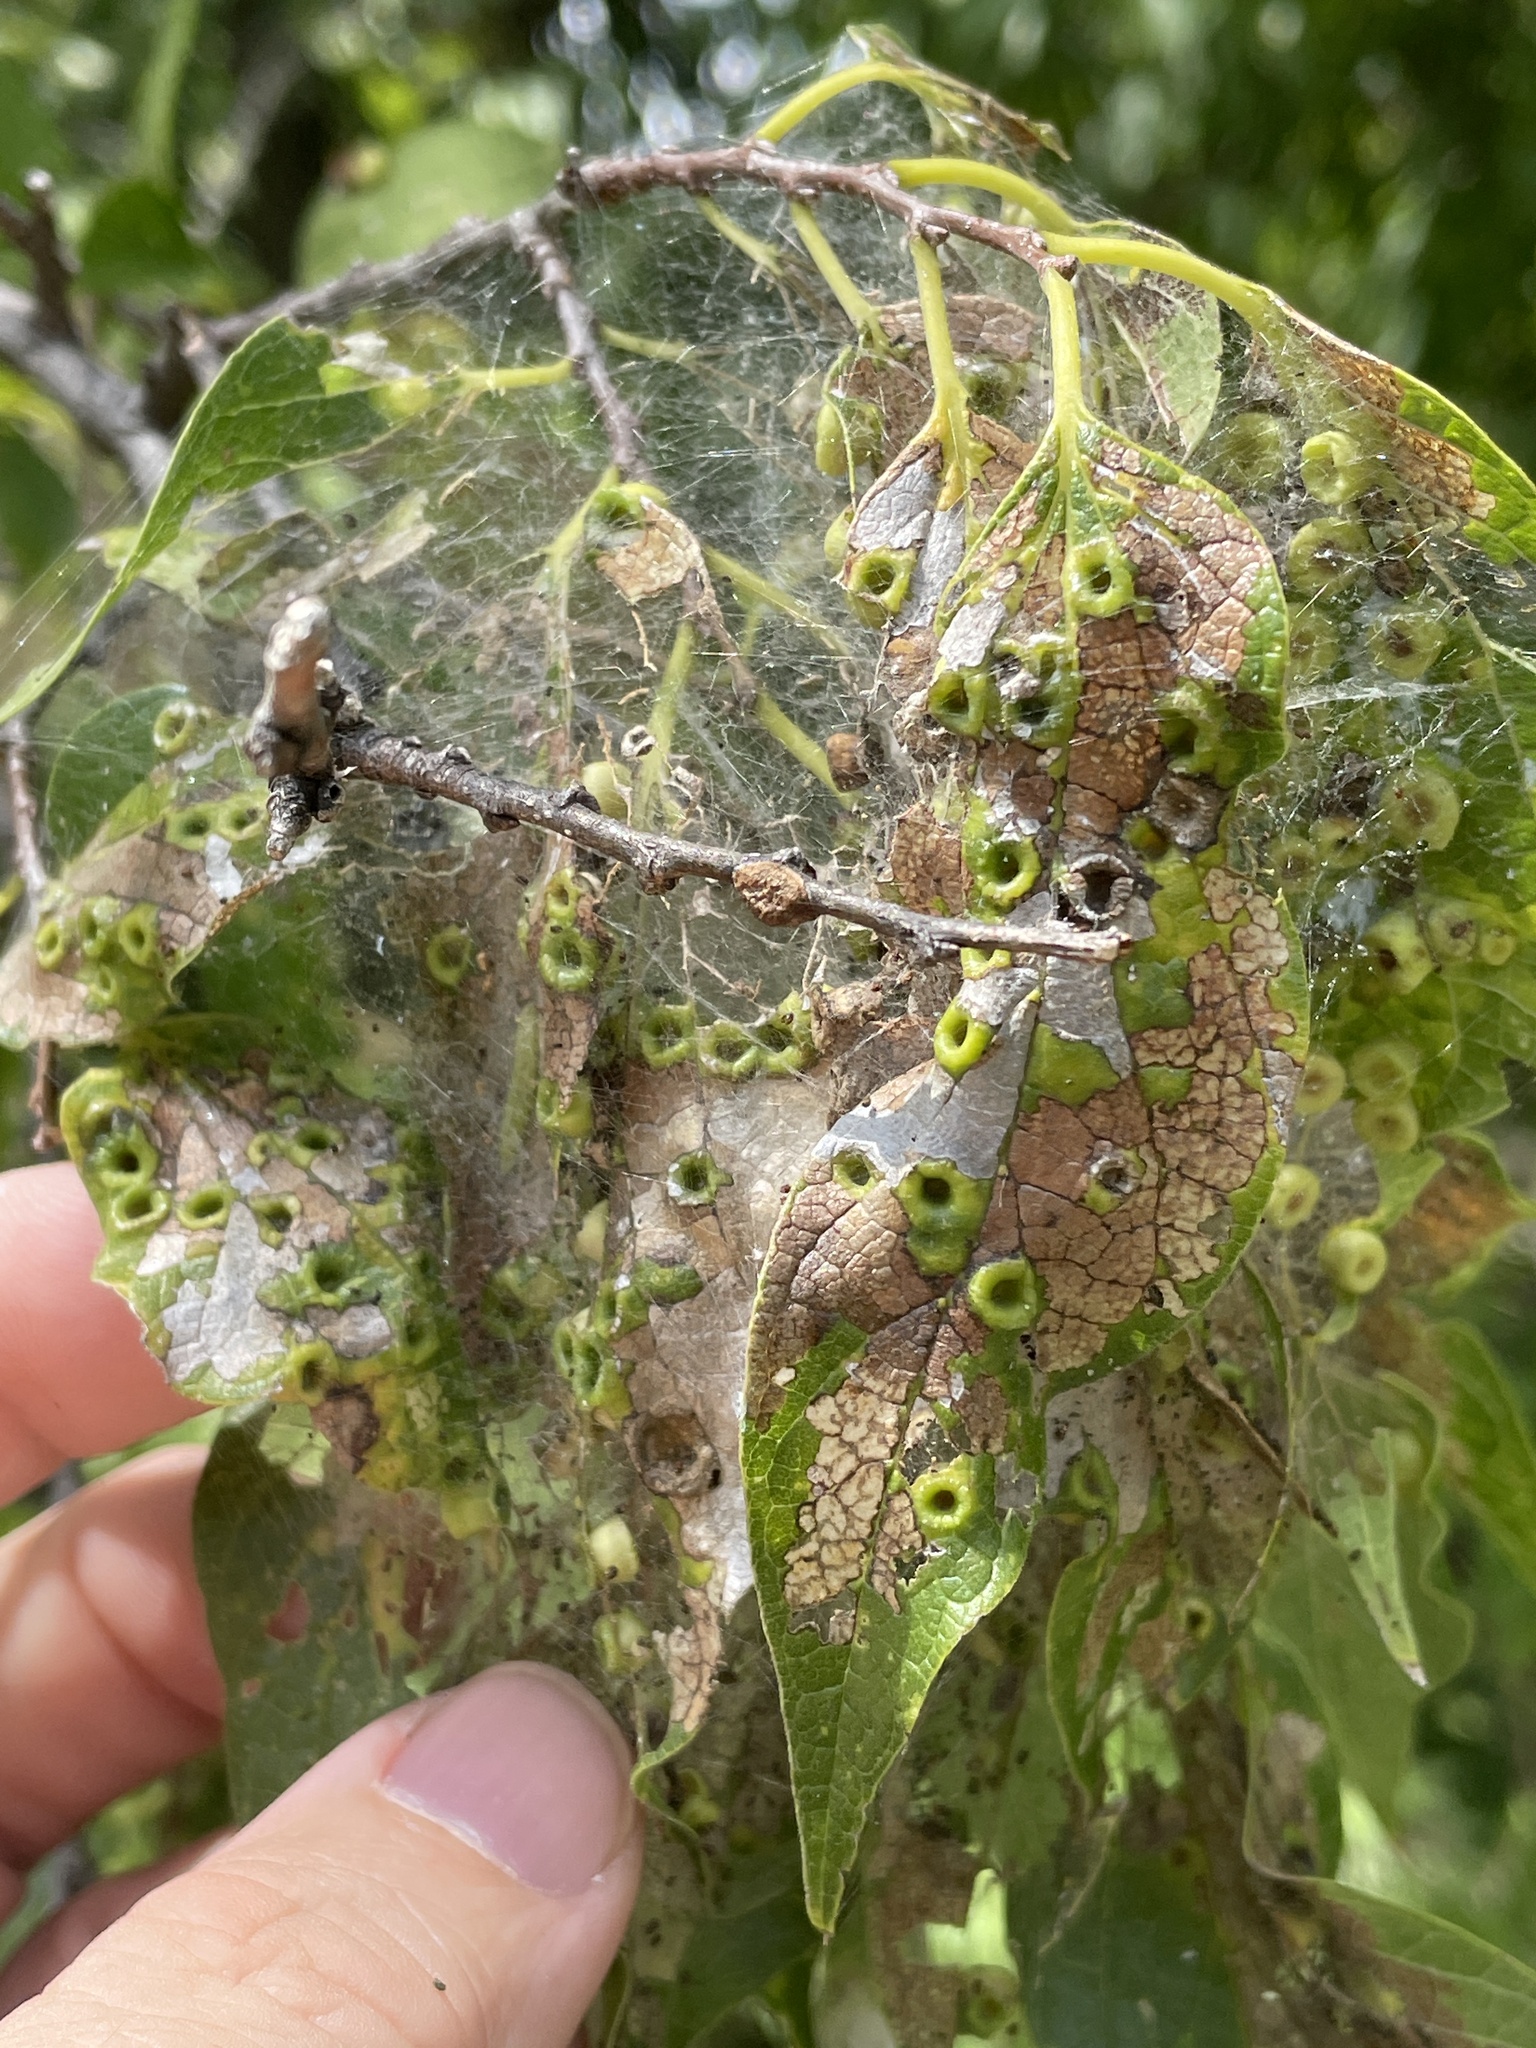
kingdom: Animalia
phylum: Arthropoda
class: Insecta
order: Hemiptera
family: Aphalaridae
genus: Pachypsylla
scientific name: Pachypsylla celtidismamma
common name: Hackberry nipplegall psyllid
